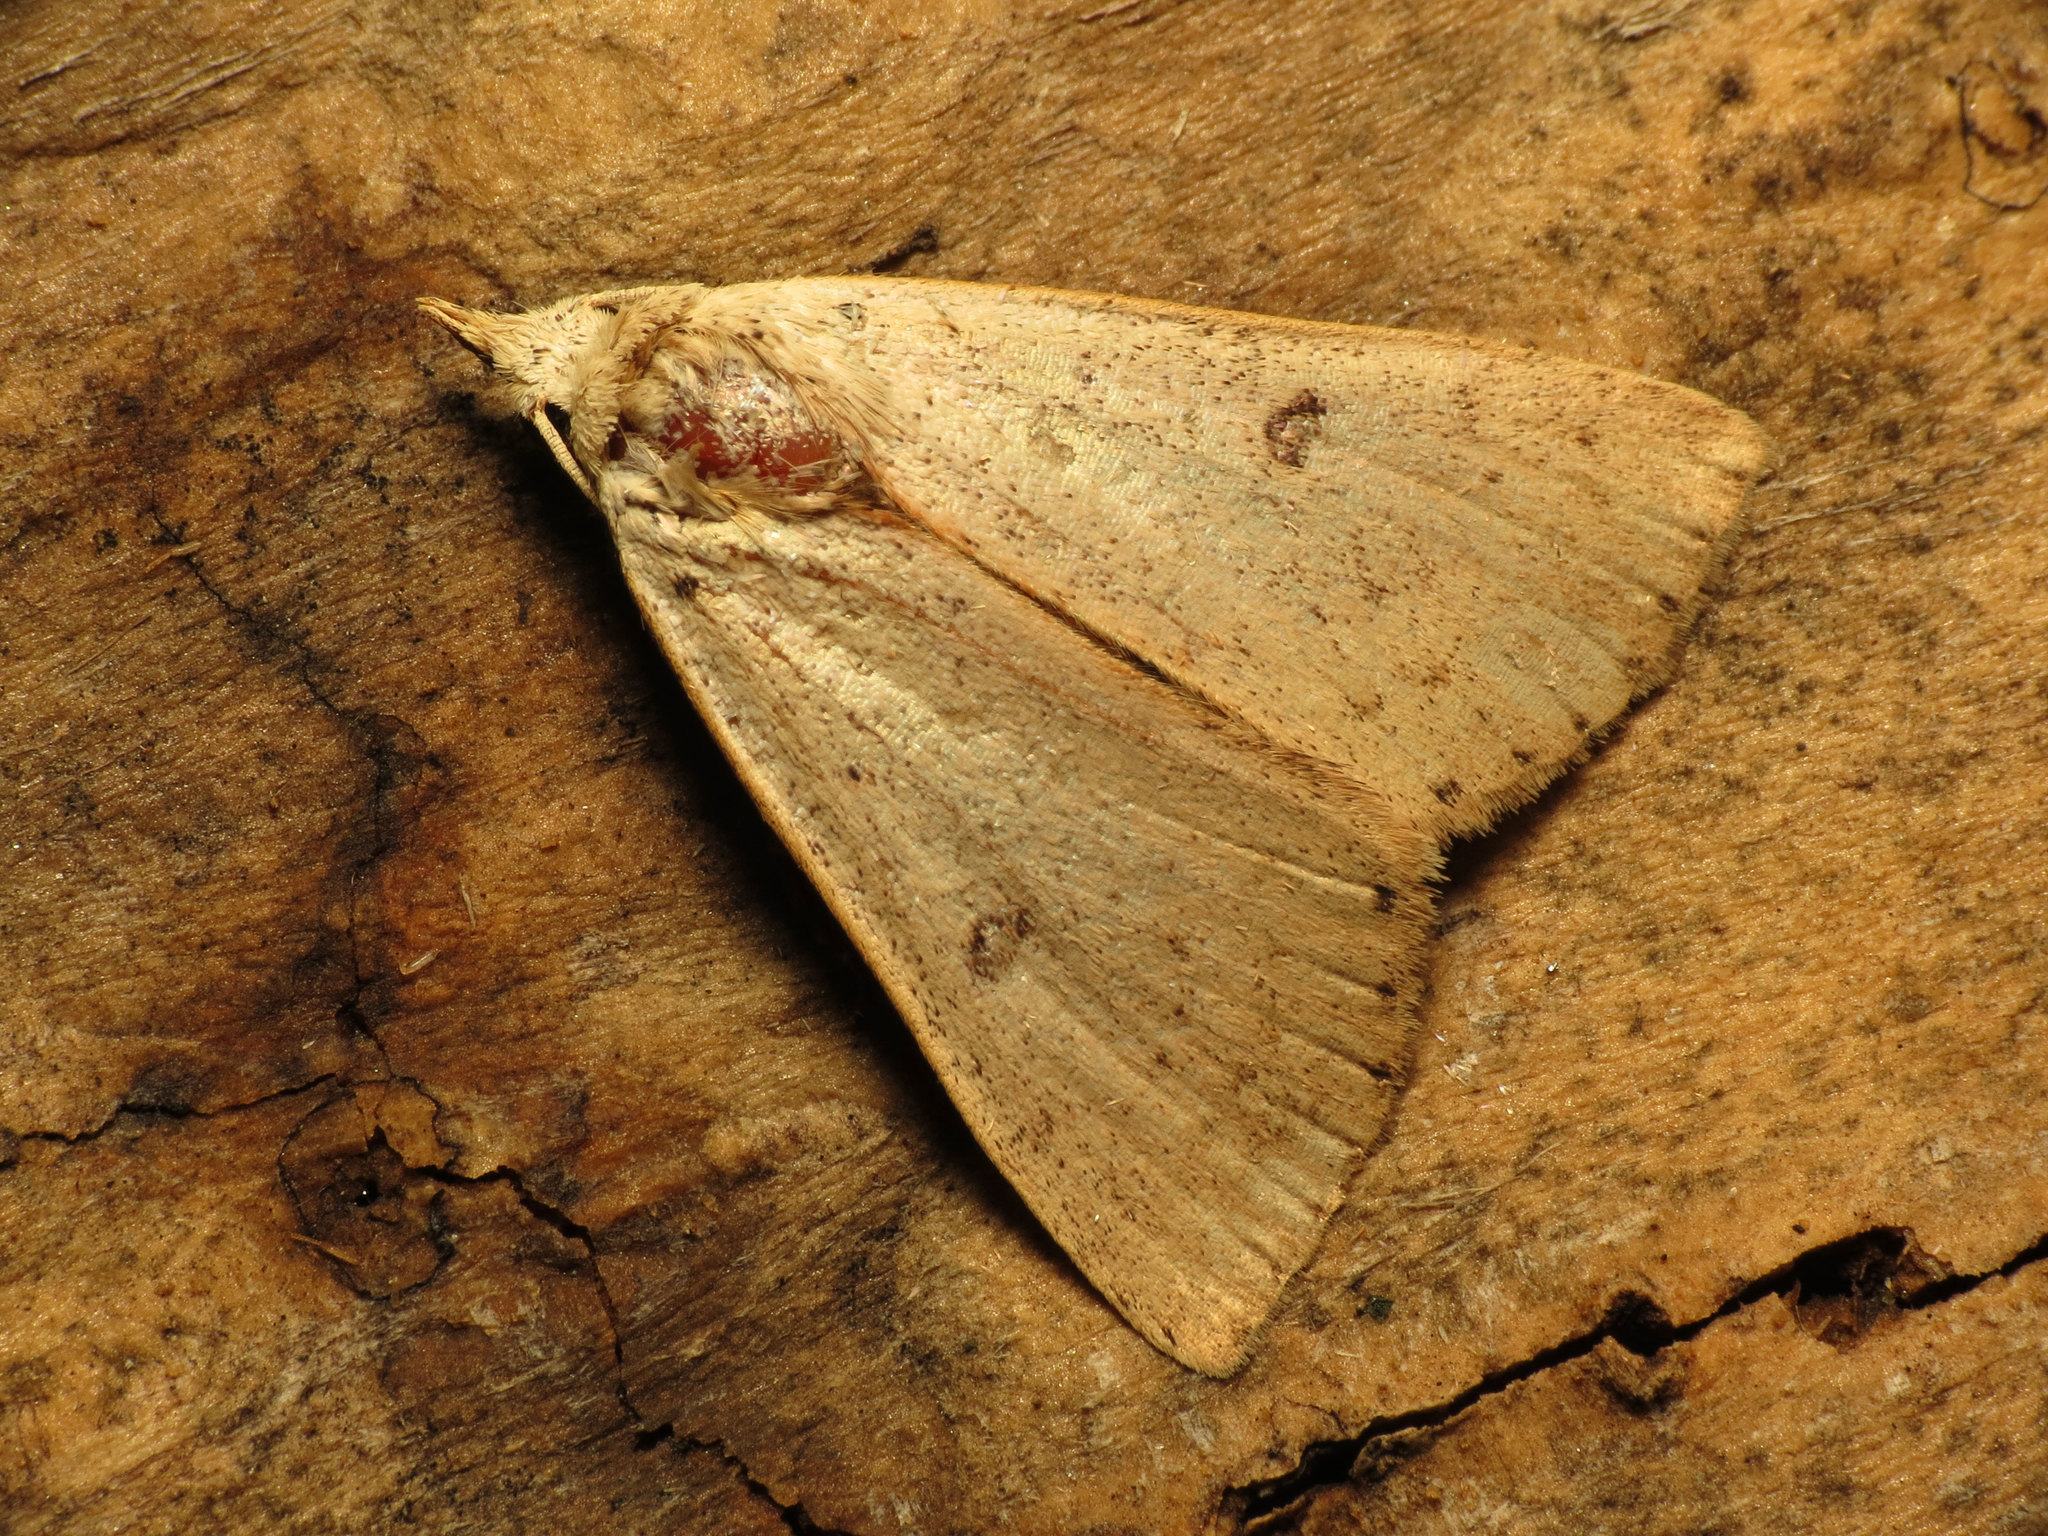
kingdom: Animalia
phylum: Arthropoda
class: Insecta
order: Lepidoptera
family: Erebidae
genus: Scolecocampa
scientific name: Scolecocampa liburna
